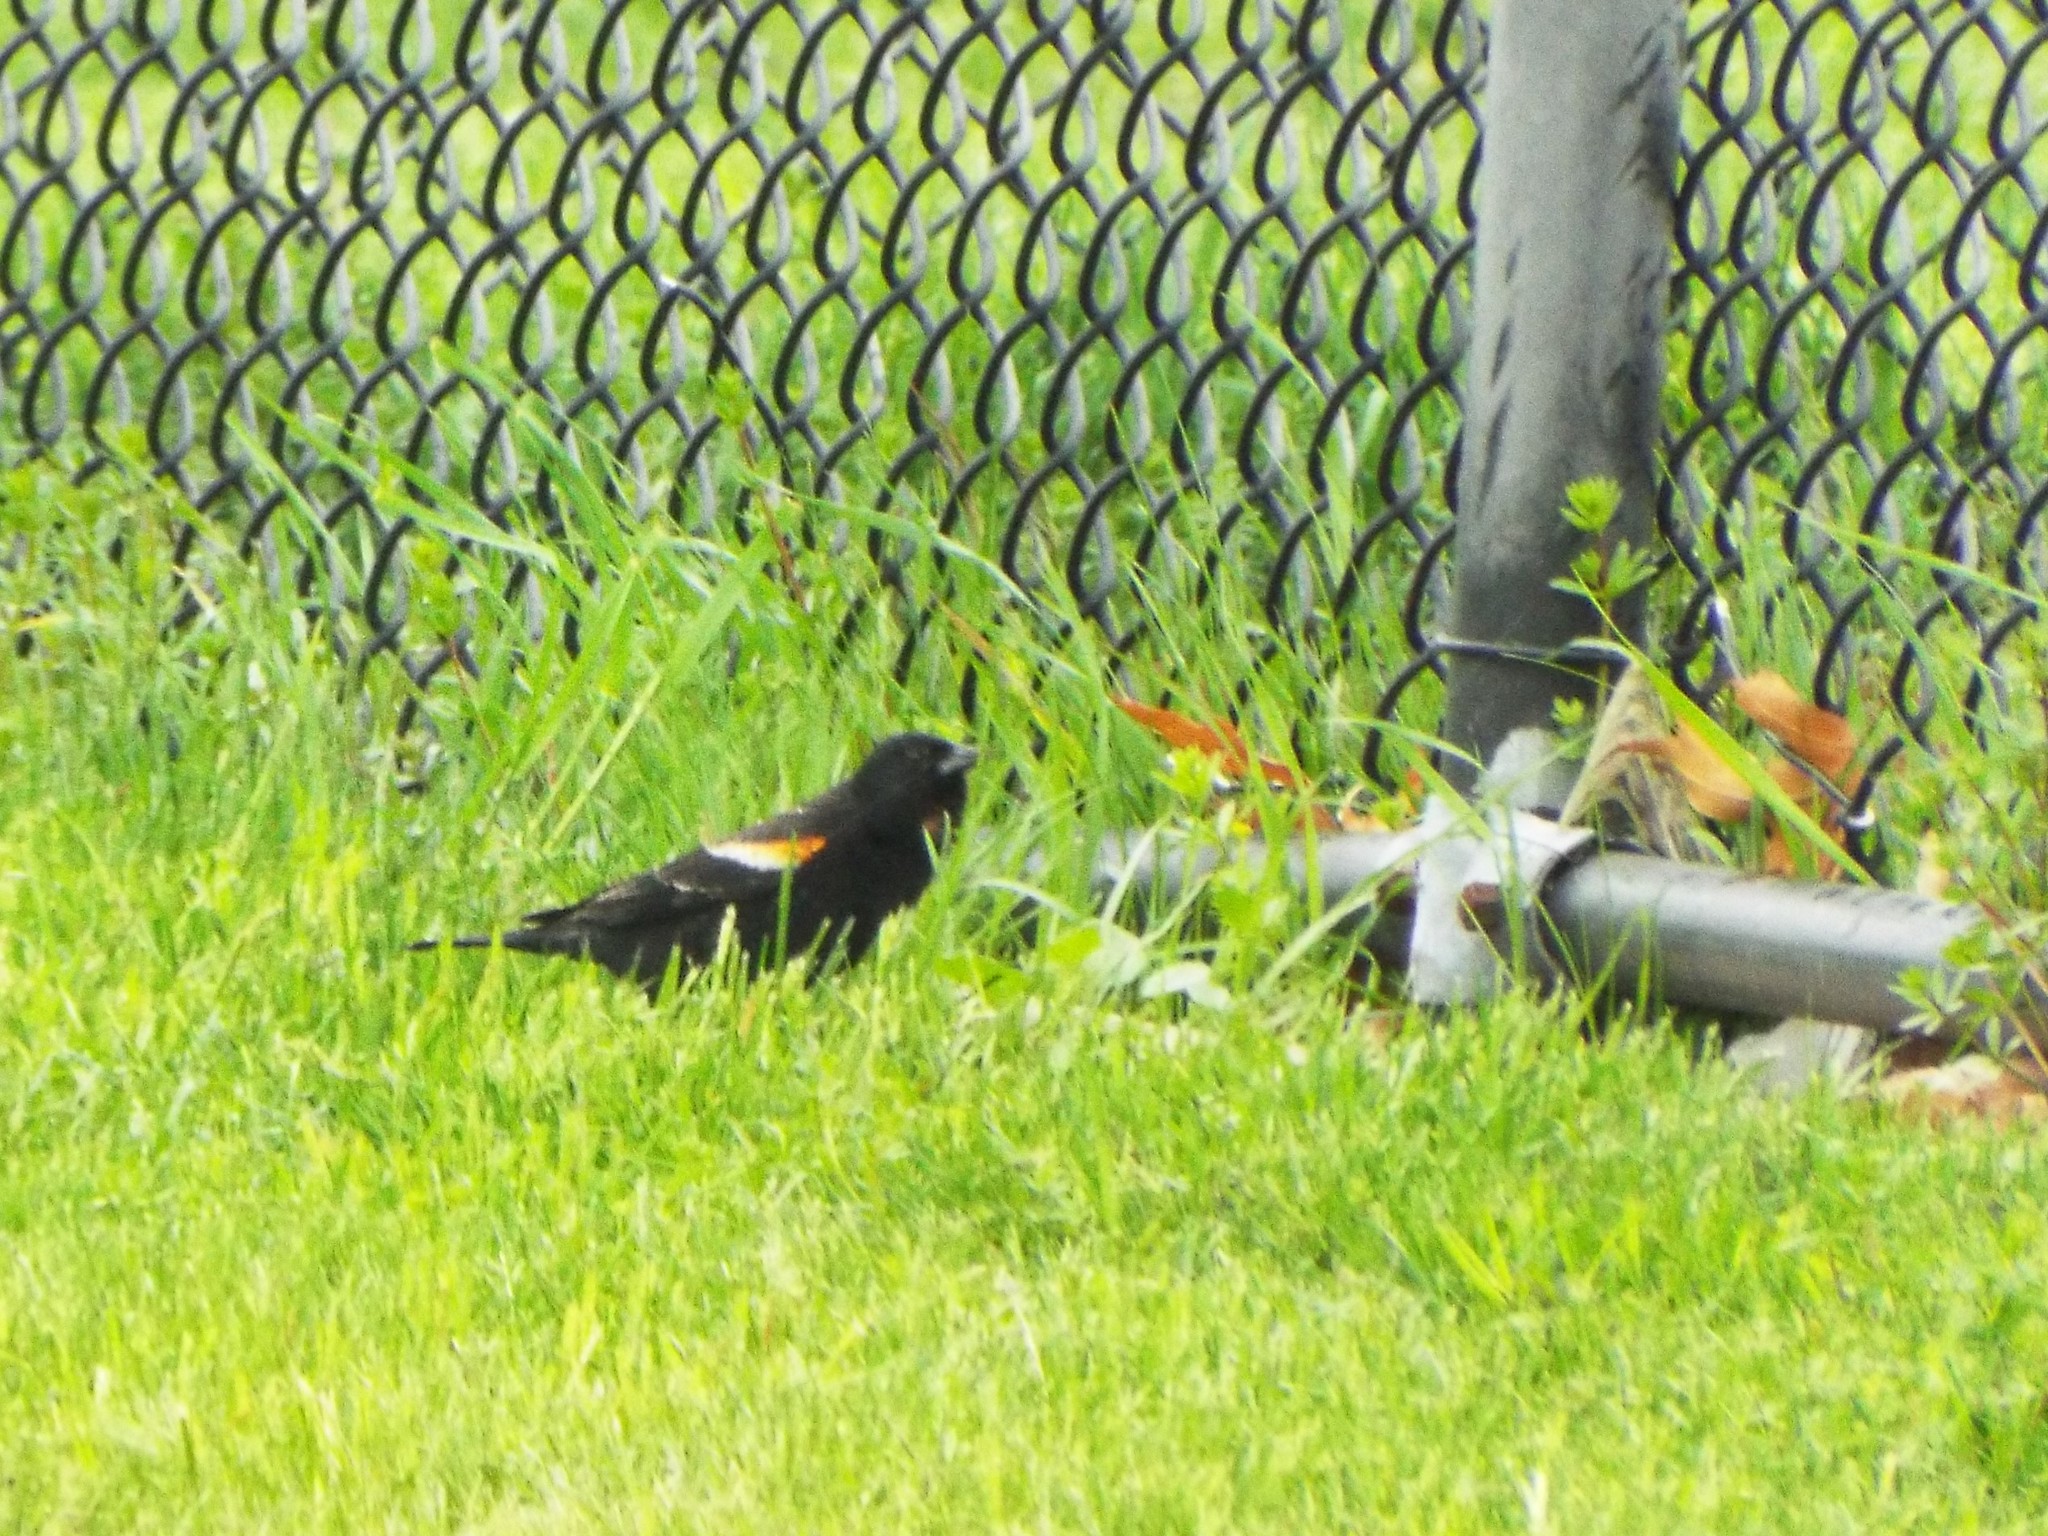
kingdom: Animalia
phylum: Chordata
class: Aves
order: Passeriformes
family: Icteridae
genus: Agelaius
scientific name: Agelaius phoeniceus
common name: Red-winged blackbird
